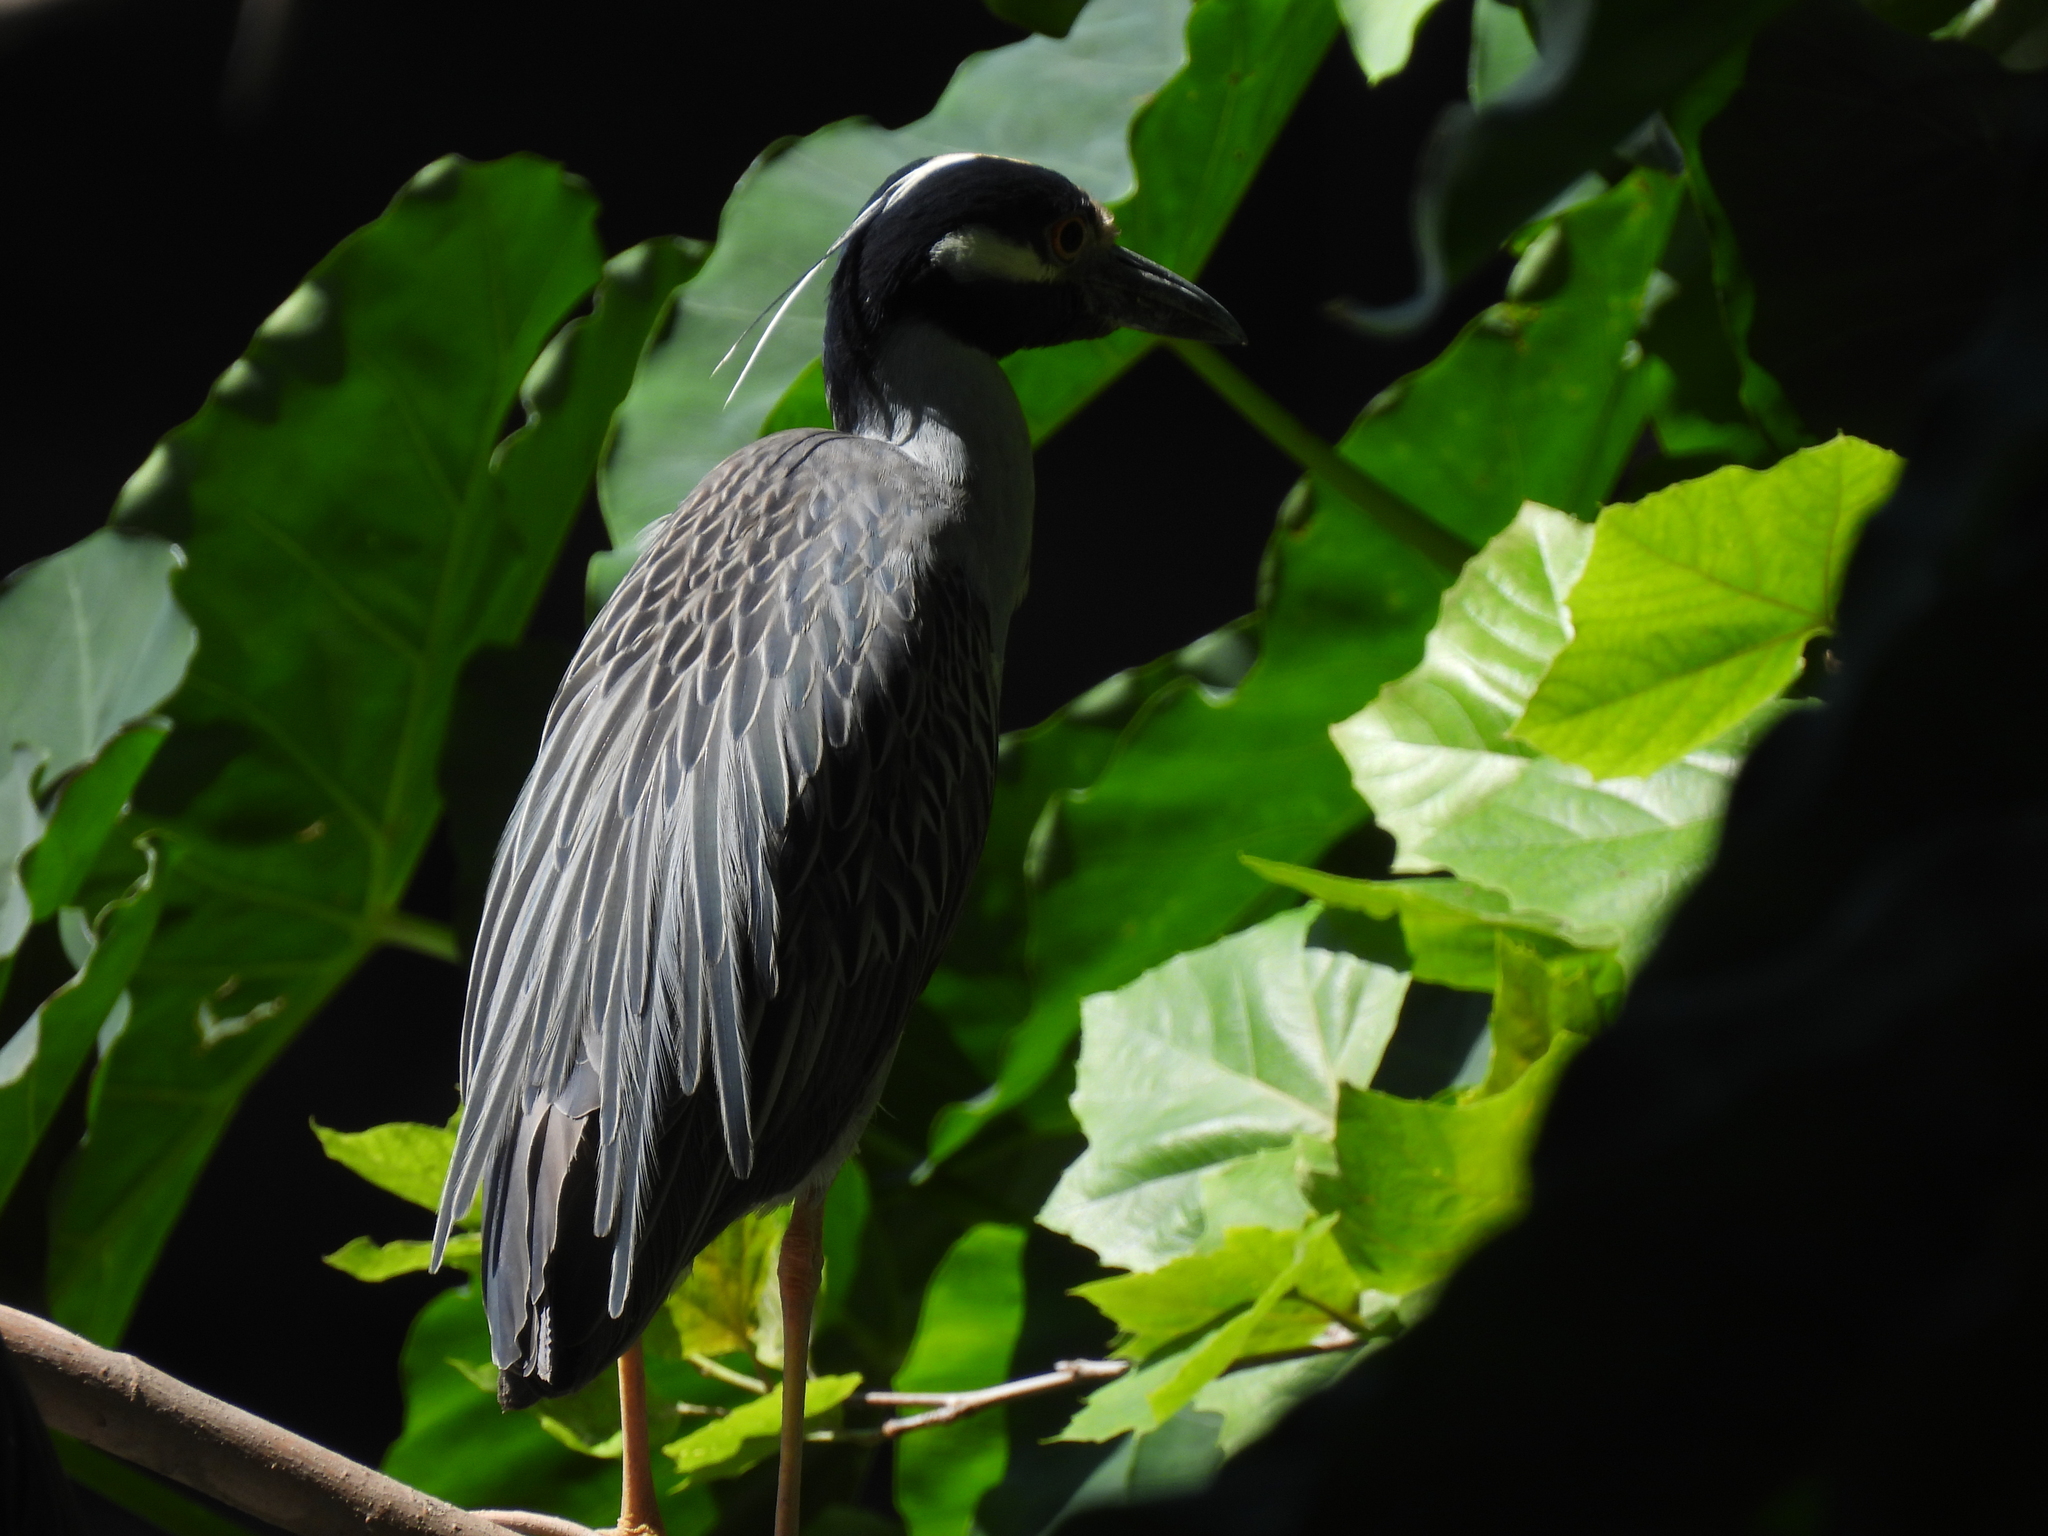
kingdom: Animalia
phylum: Chordata
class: Aves
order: Pelecaniformes
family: Ardeidae
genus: Nyctanassa
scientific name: Nyctanassa violacea
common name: Yellow-crowned night heron
